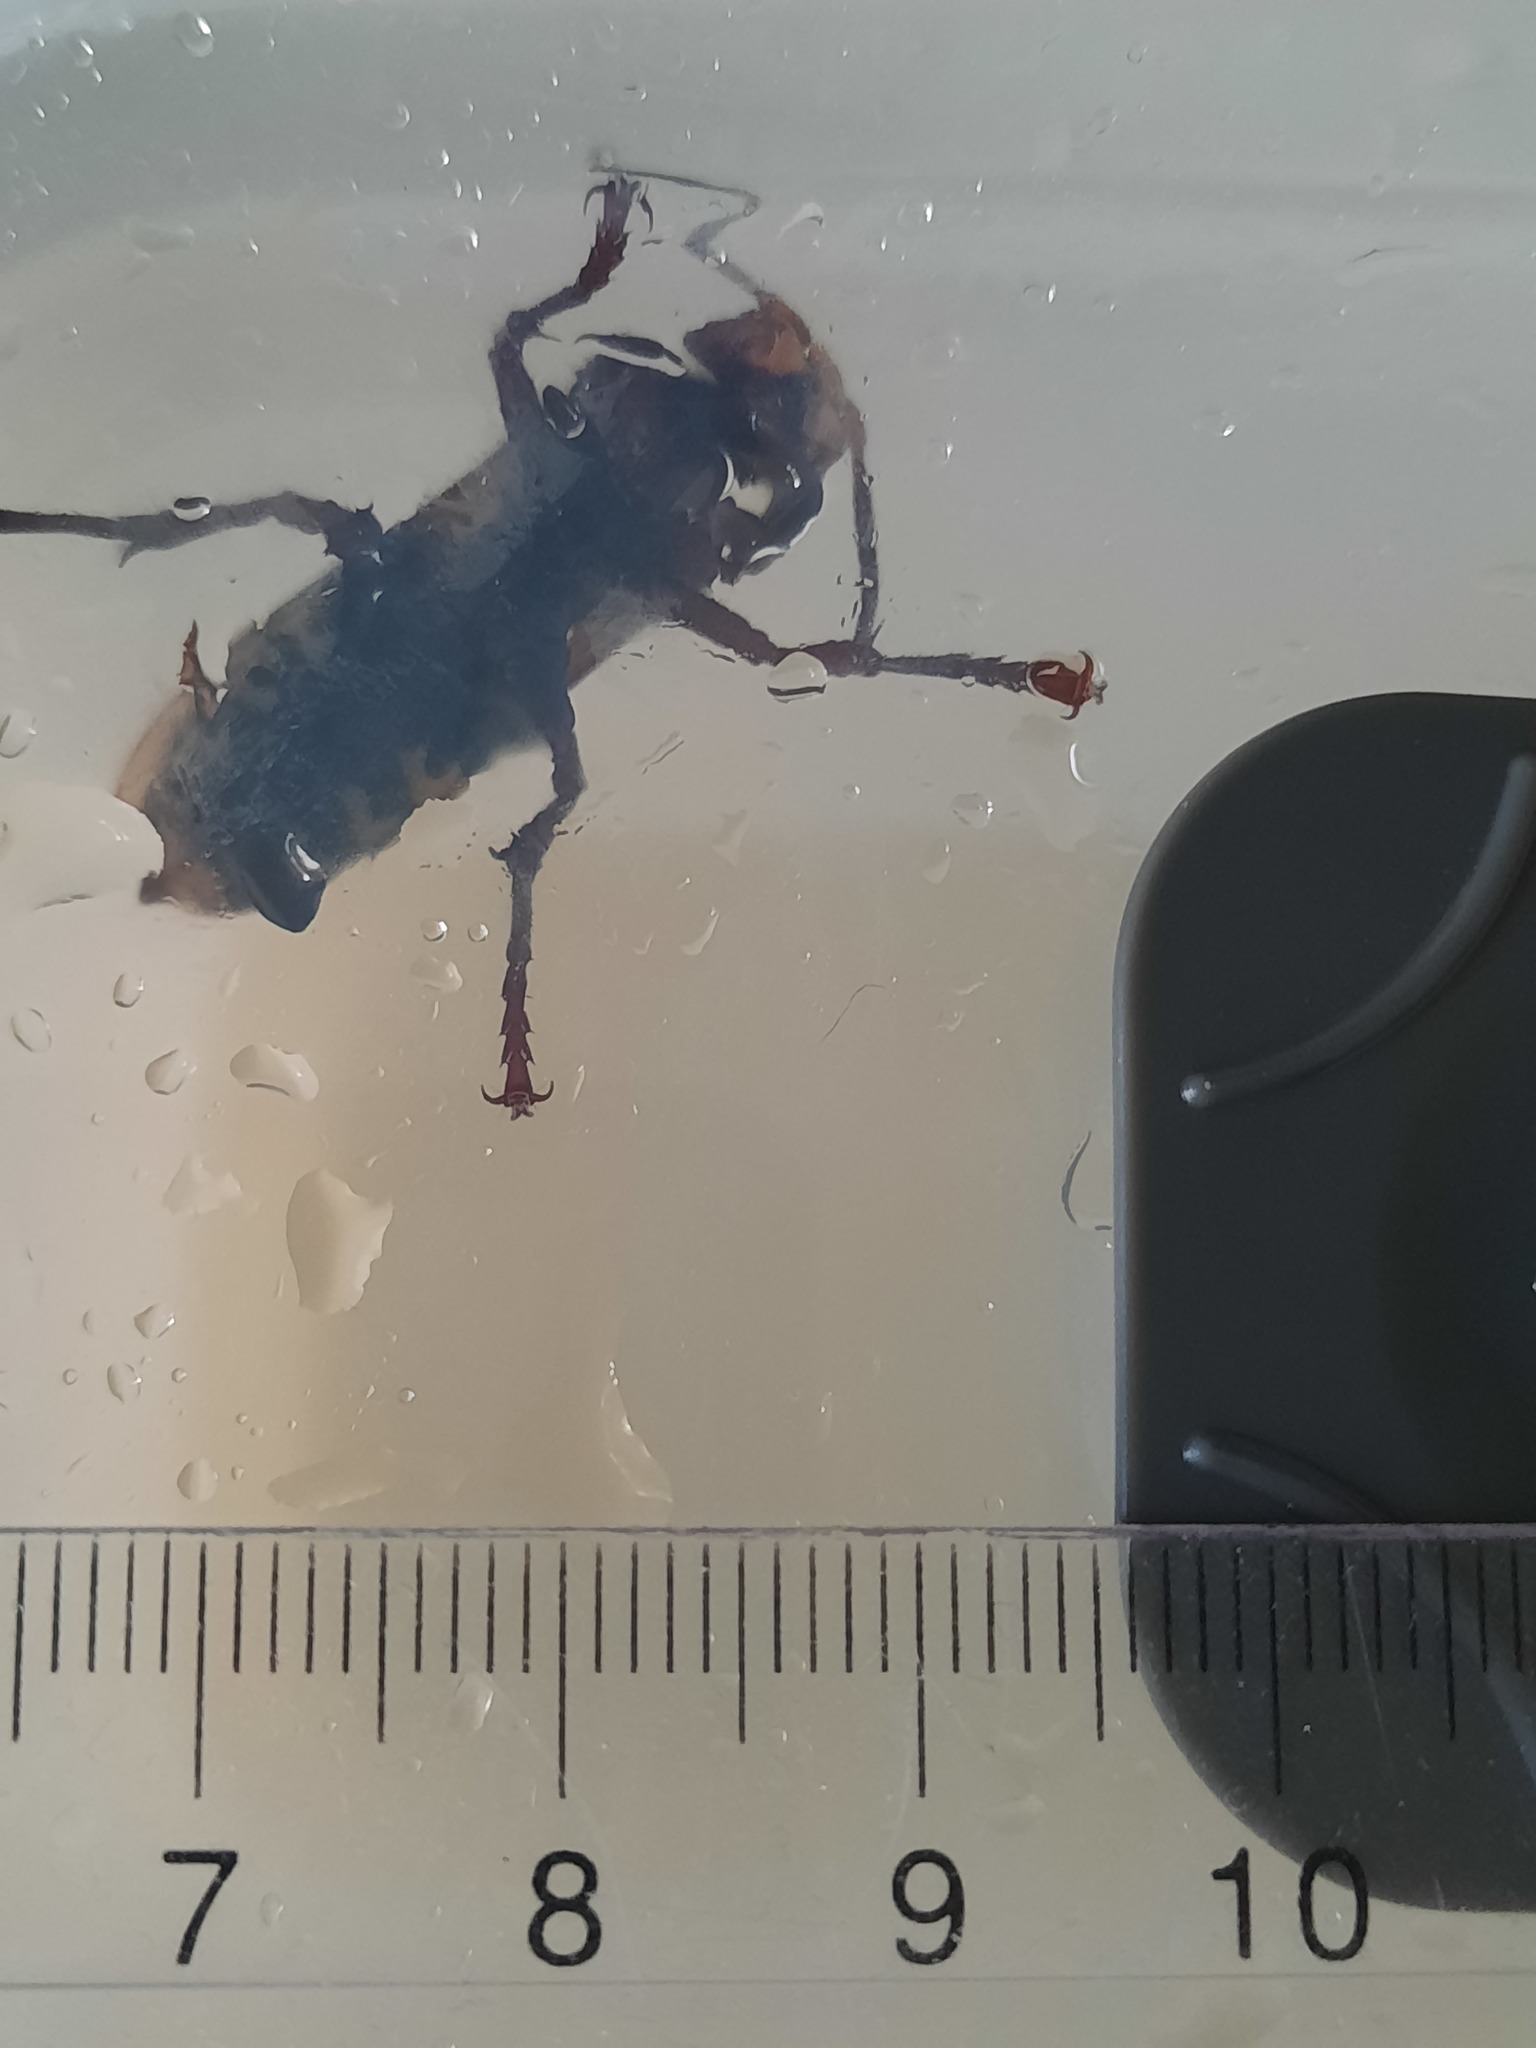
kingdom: Animalia
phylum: Arthropoda
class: Insecta
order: Hymenoptera
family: Vespidae
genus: Vespa
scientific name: Vespa crabro
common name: Hornet
